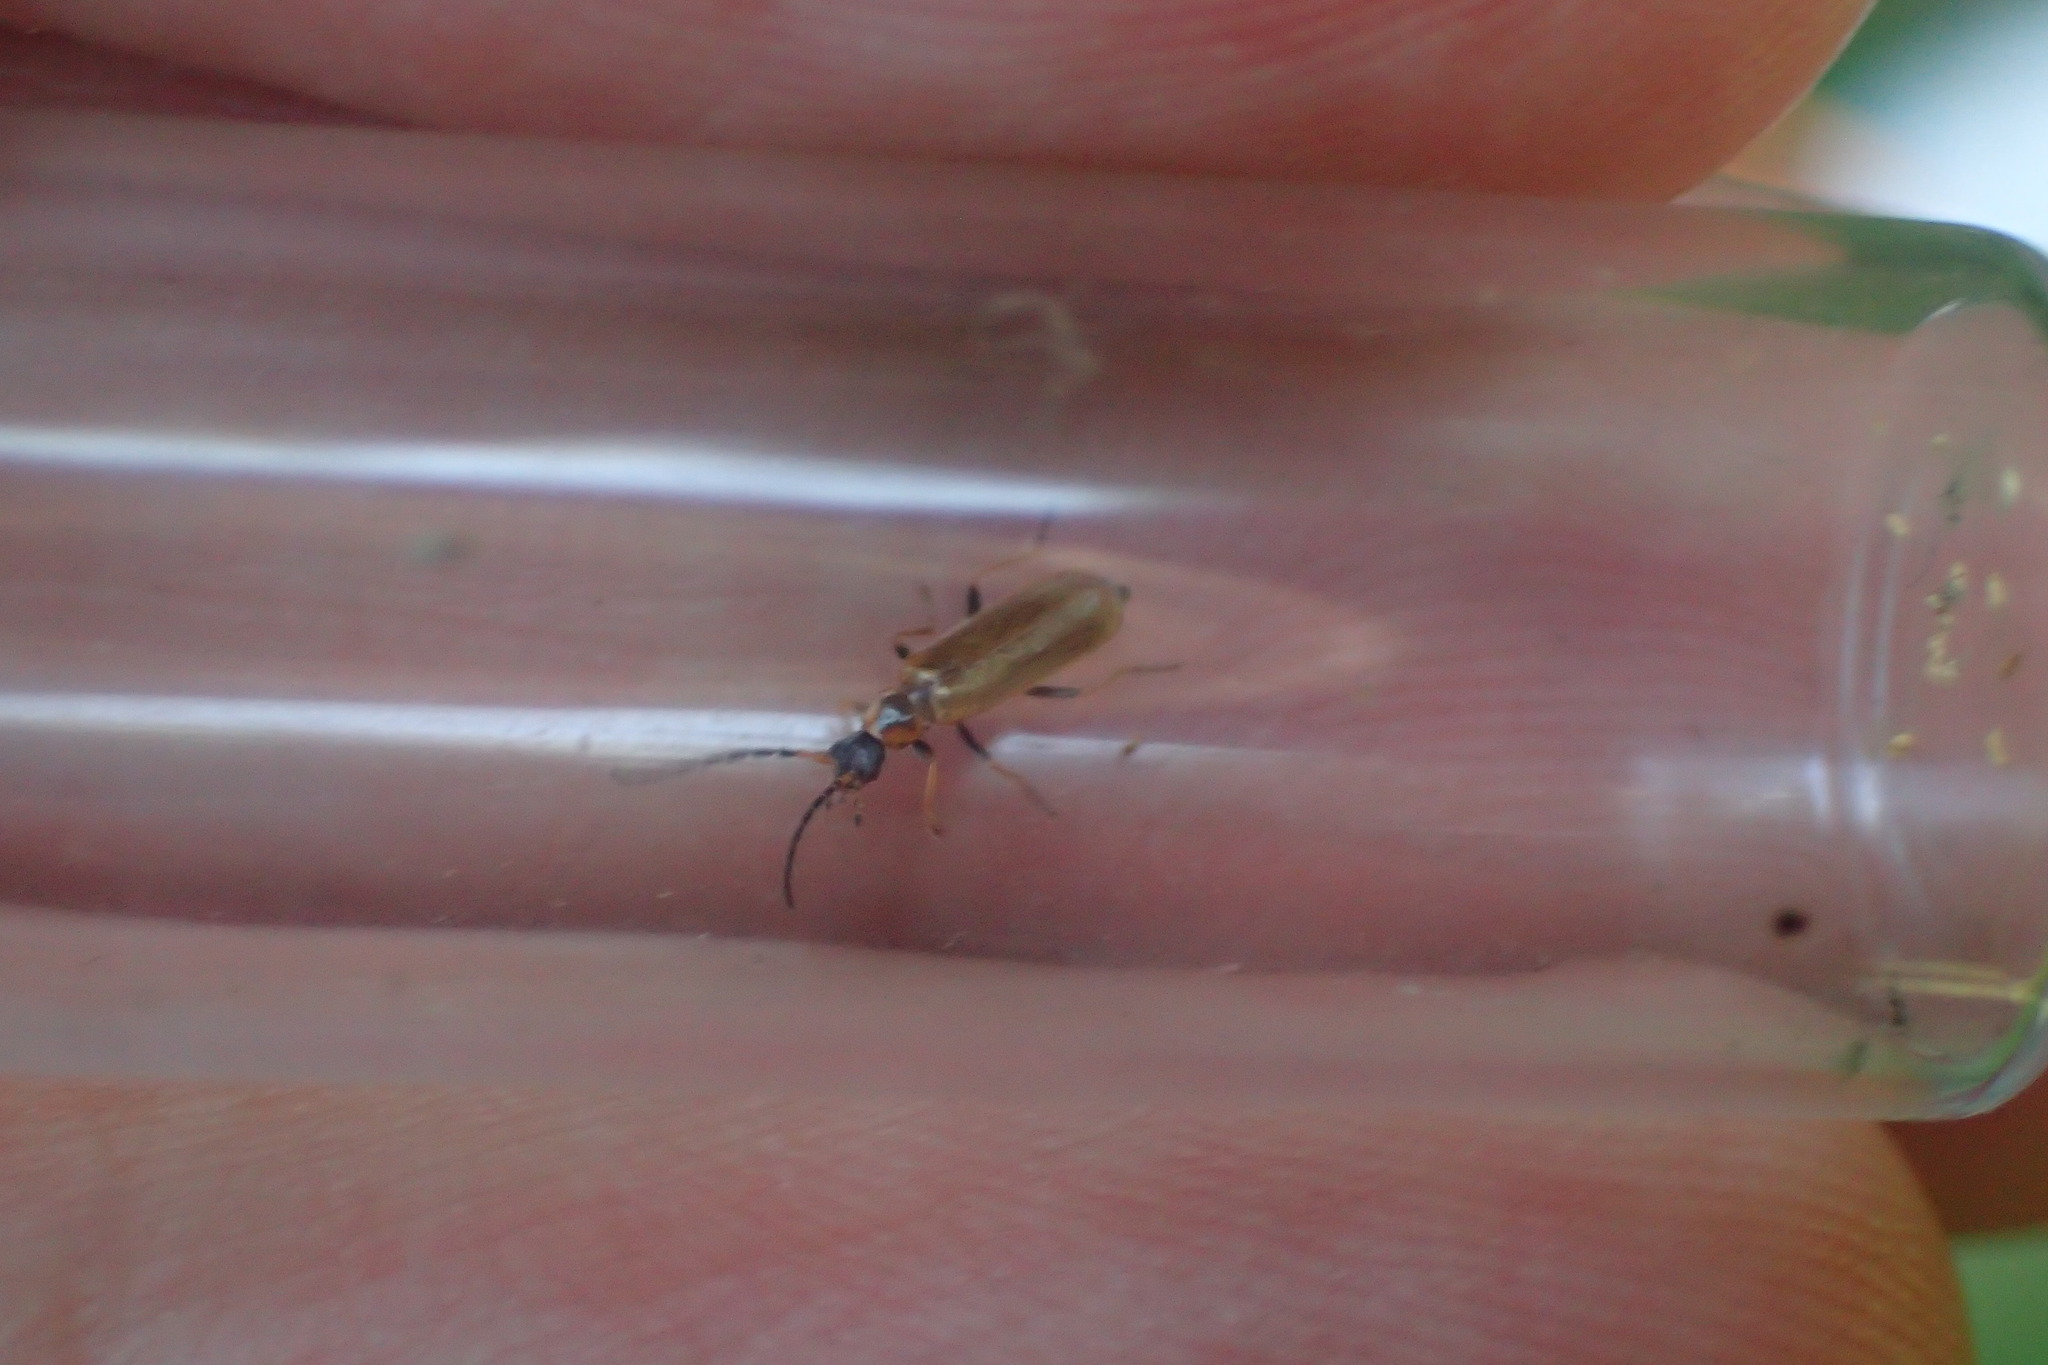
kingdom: Animalia
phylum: Arthropoda
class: Insecta
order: Coleoptera
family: Cantharidae
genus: Rhagonycha
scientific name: Rhagonycha nigriventris
